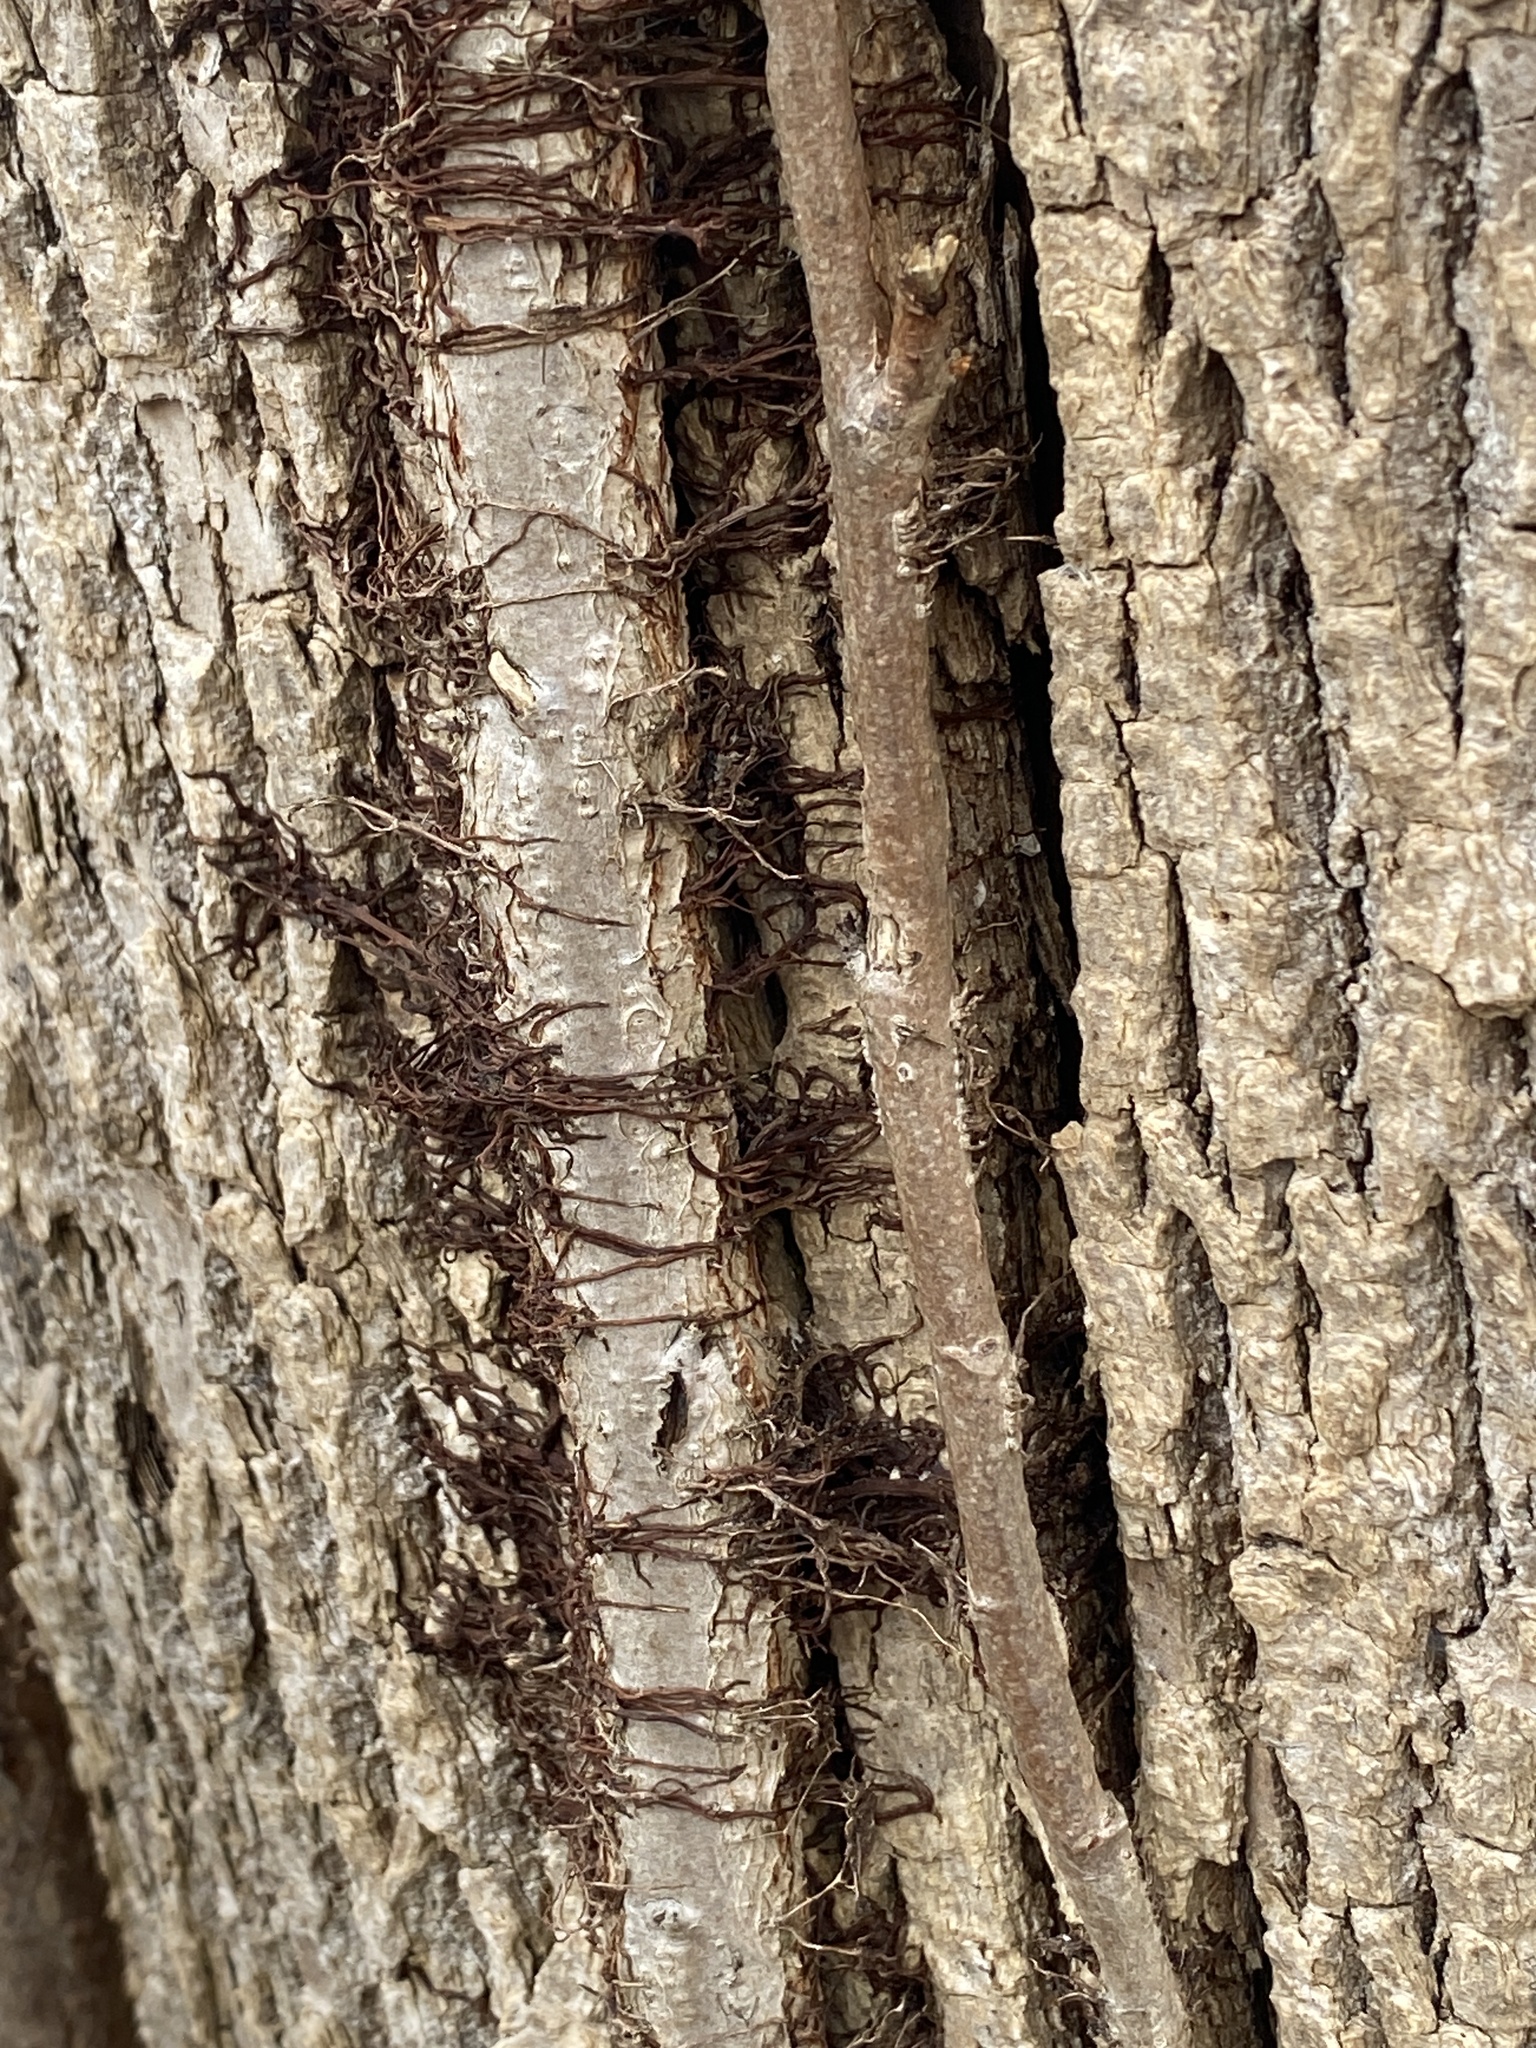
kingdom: Plantae
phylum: Tracheophyta
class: Magnoliopsida
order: Sapindales
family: Anacardiaceae
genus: Toxicodendron
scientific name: Toxicodendron radicans
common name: Poison ivy
